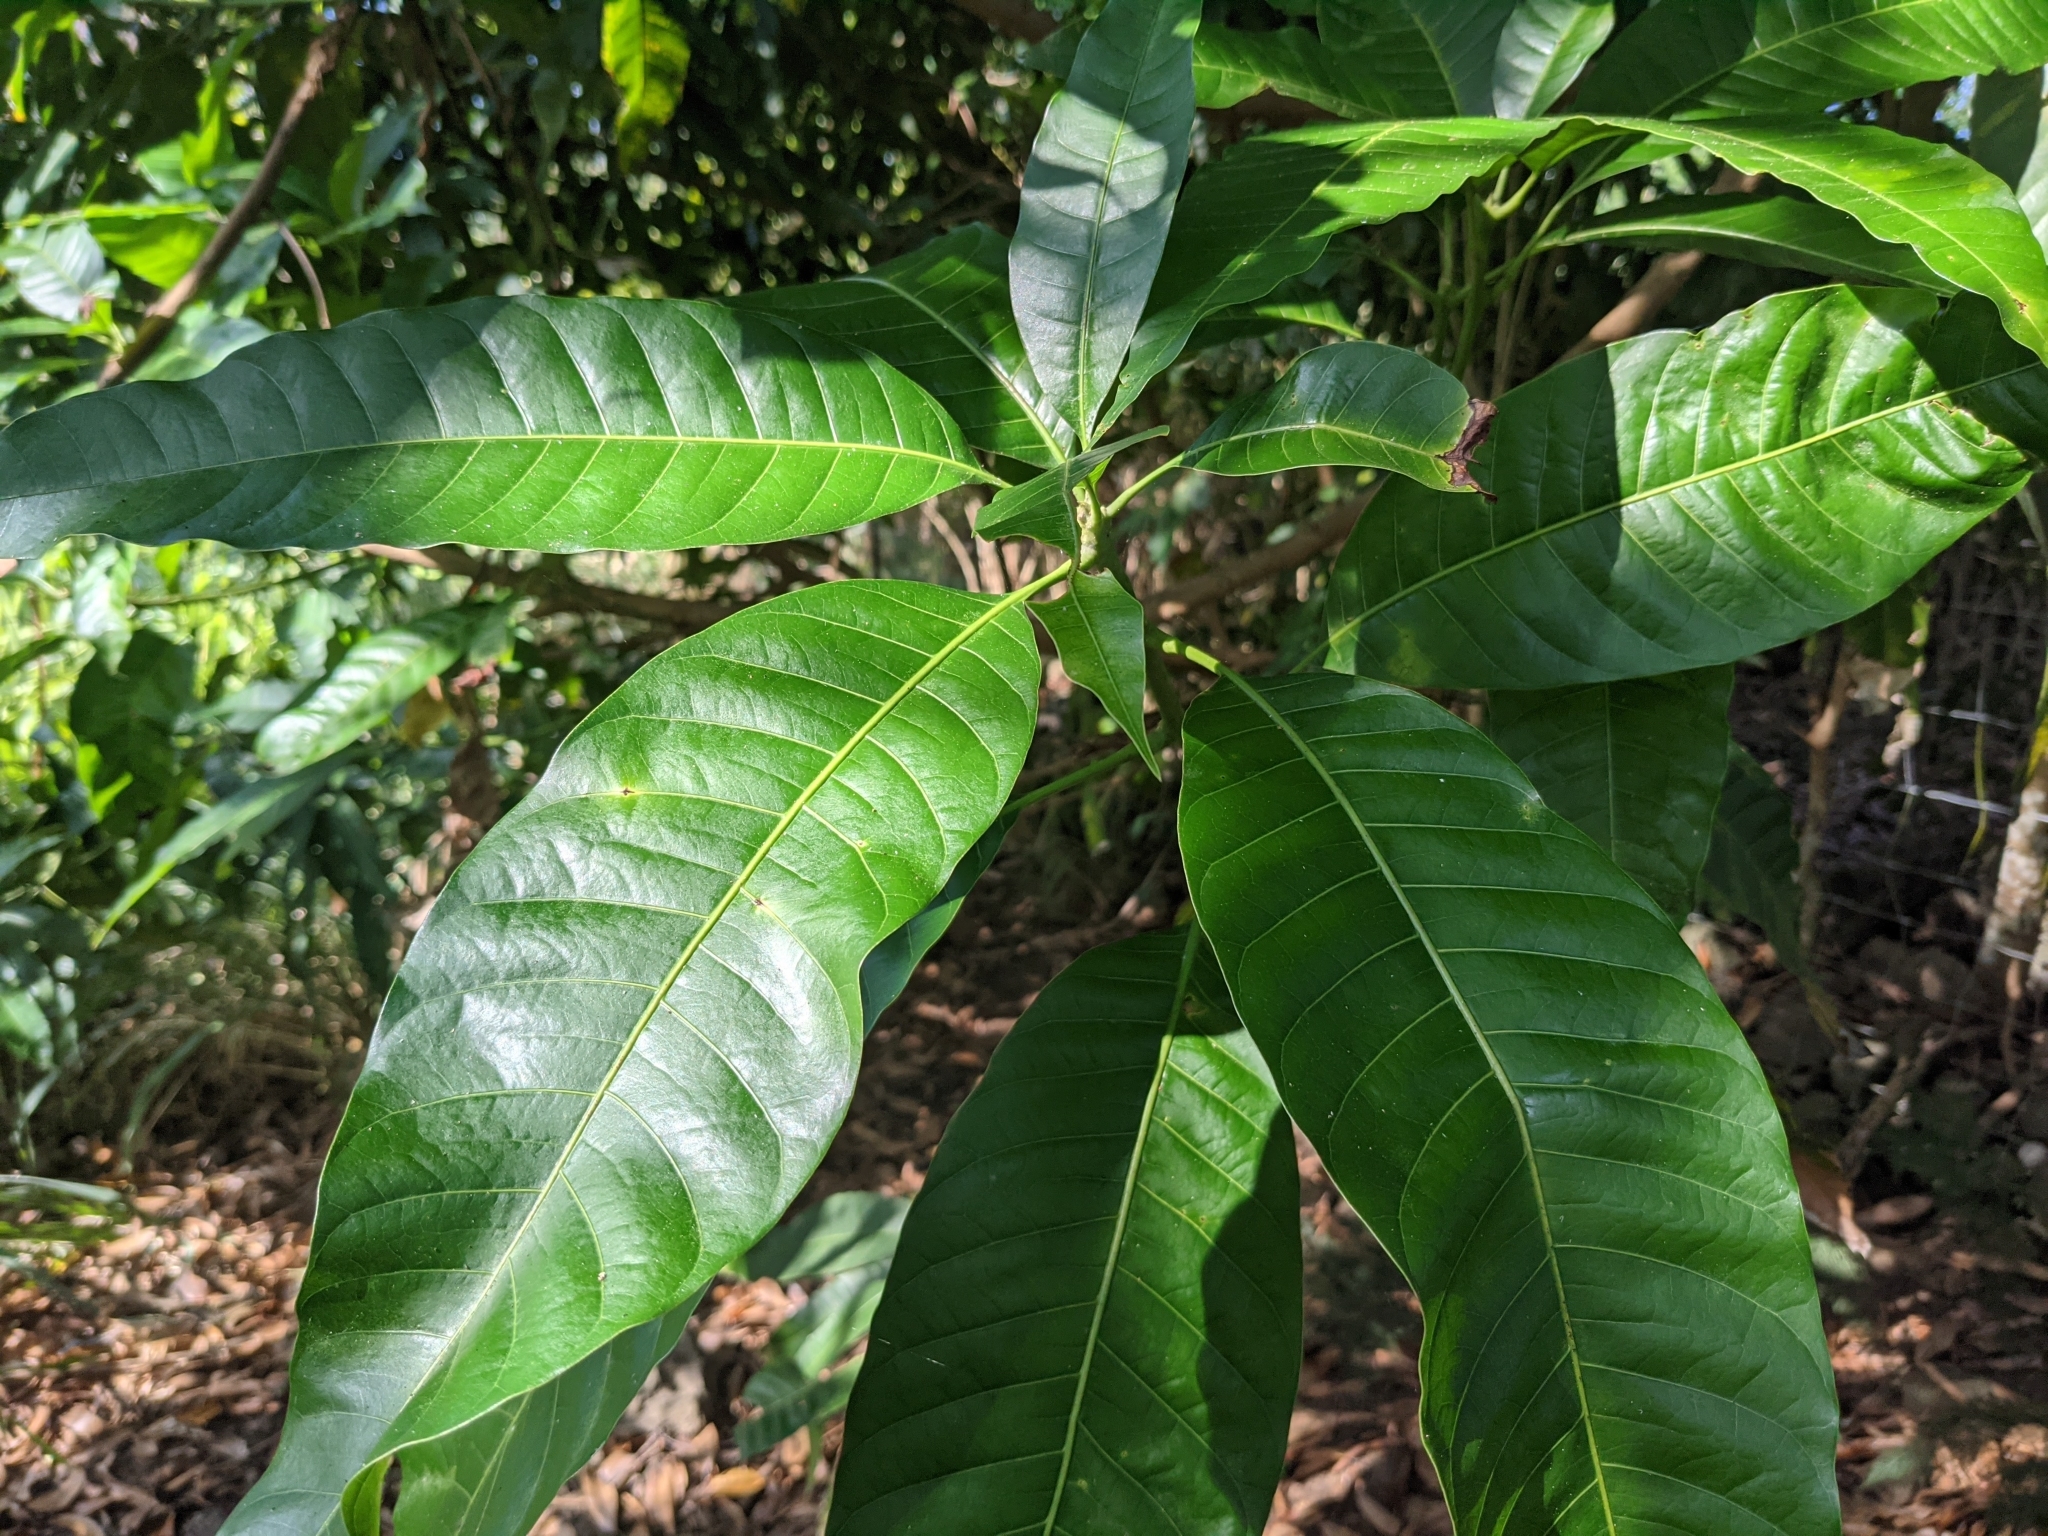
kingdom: Plantae
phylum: Tracheophyta
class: Magnoliopsida
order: Sapindales
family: Anacardiaceae
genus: Mangifera
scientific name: Mangifera indica
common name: Mango
